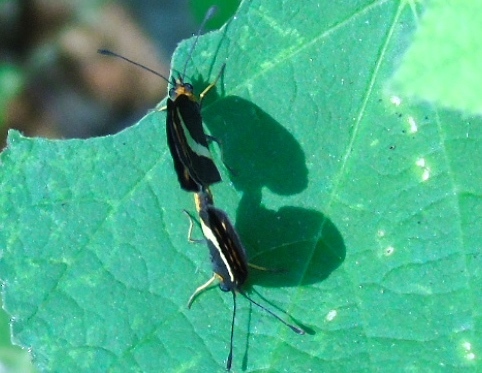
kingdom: Animalia
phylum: Arthropoda
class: Insecta
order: Lepidoptera
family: Nymphalidae
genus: Microtia
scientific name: Microtia elva
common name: Elf
